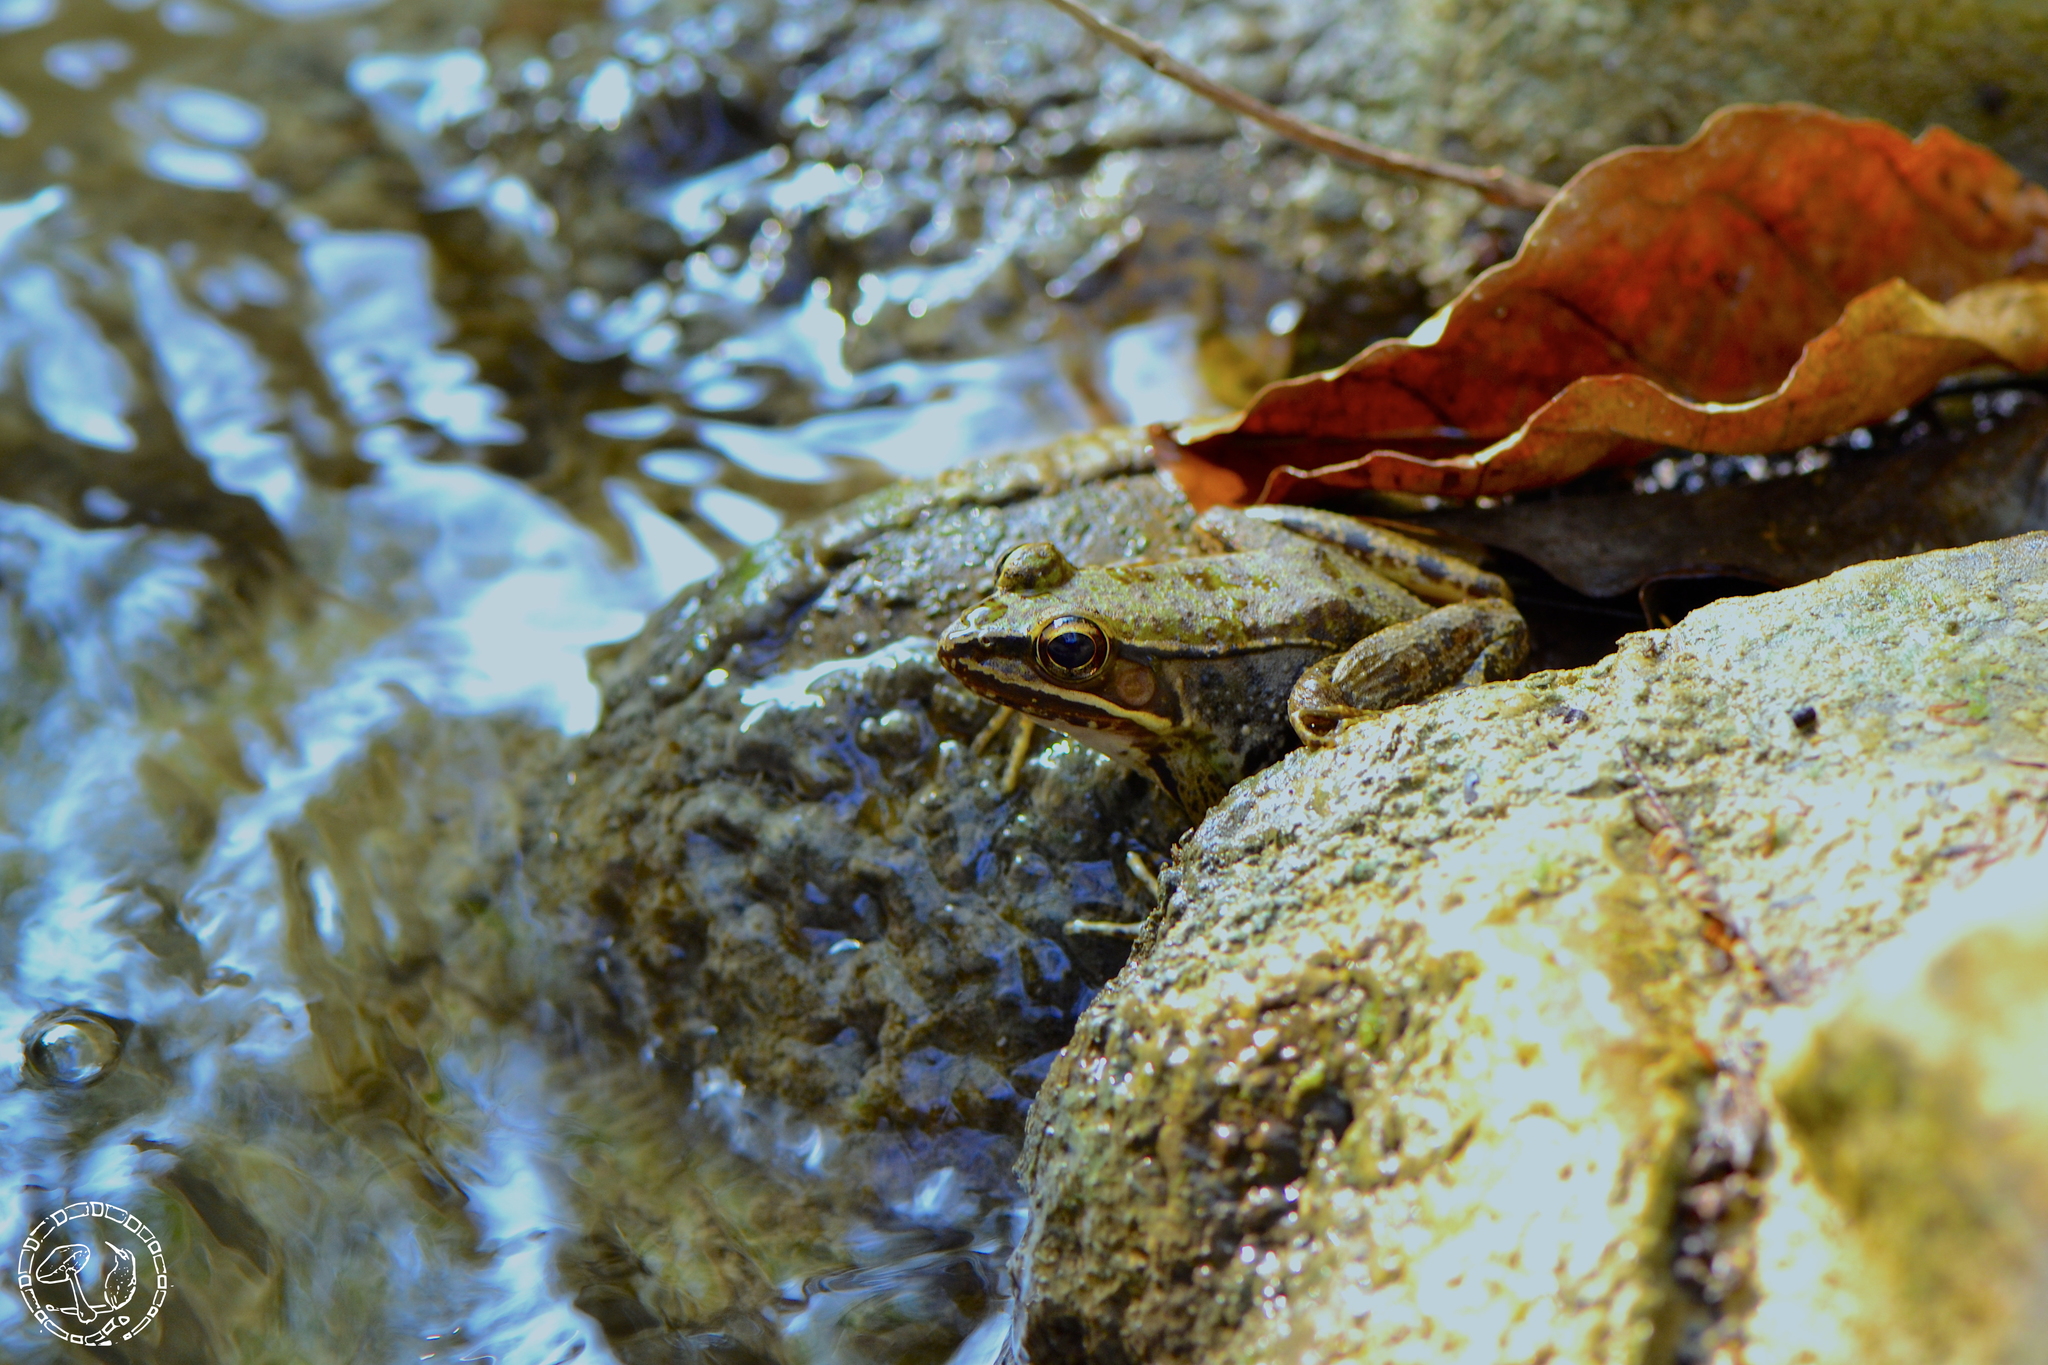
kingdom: Animalia
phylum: Chordata
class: Amphibia
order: Anura
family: Ranidae
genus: Lithobates
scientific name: Lithobates maculatus
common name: Highland frog
